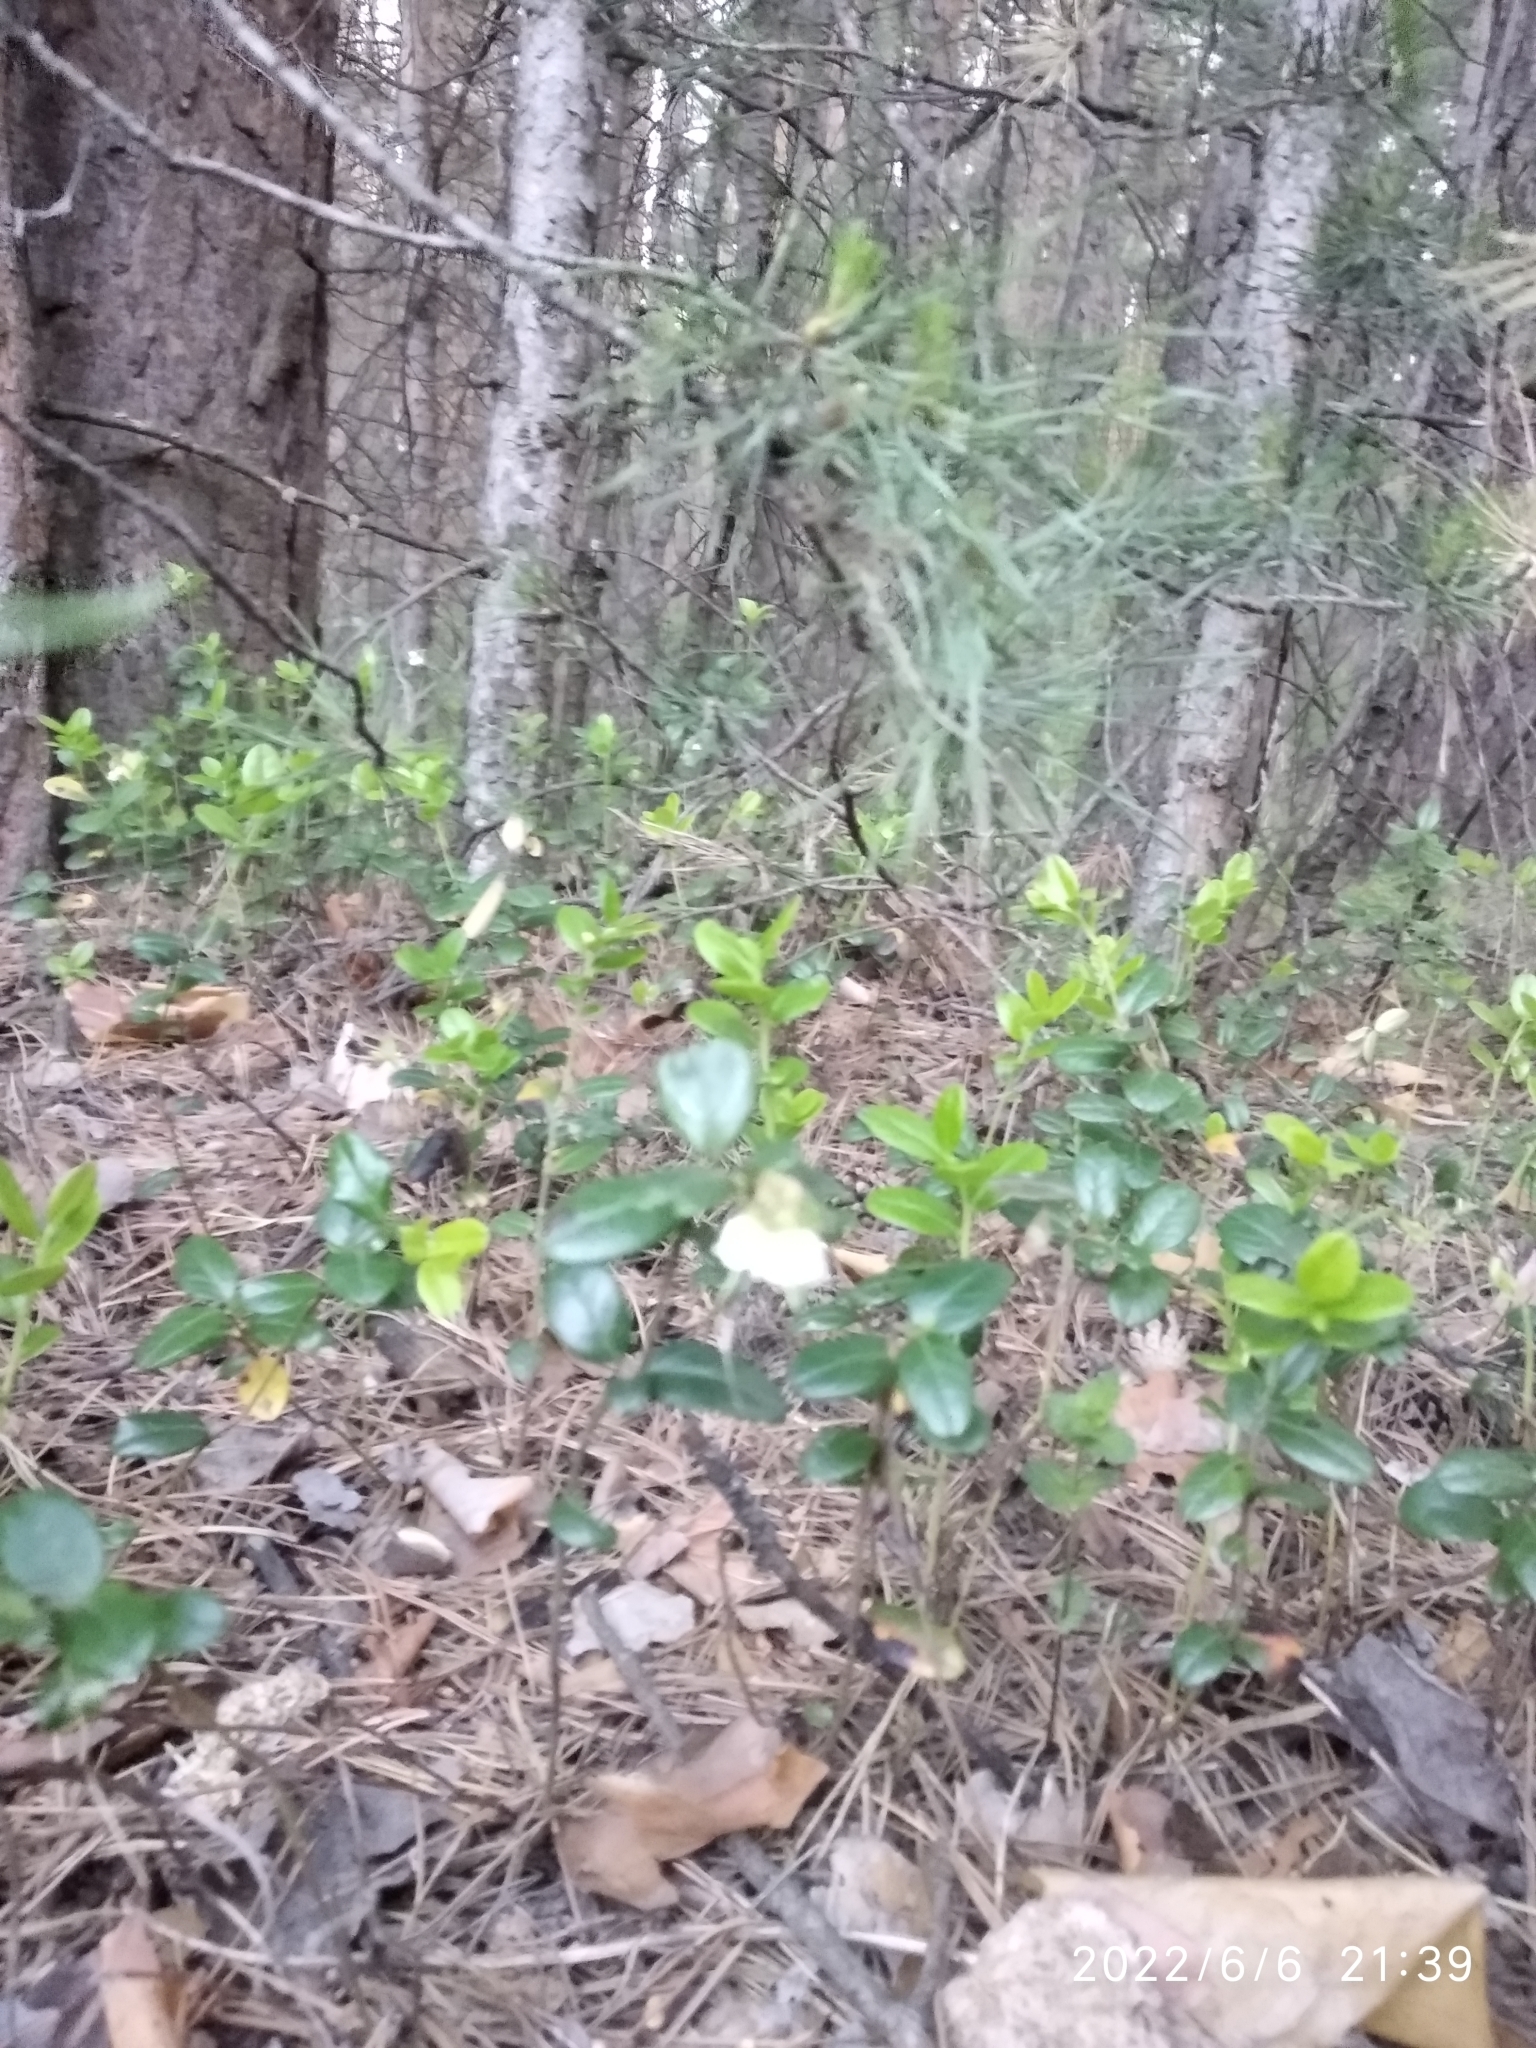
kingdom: Plantae
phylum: Tracheophyta
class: Magnoliopsida
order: Ericales
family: Ericaceae
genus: Vaccinium
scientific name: Vaccinium vitis-idaea
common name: Cowberry
